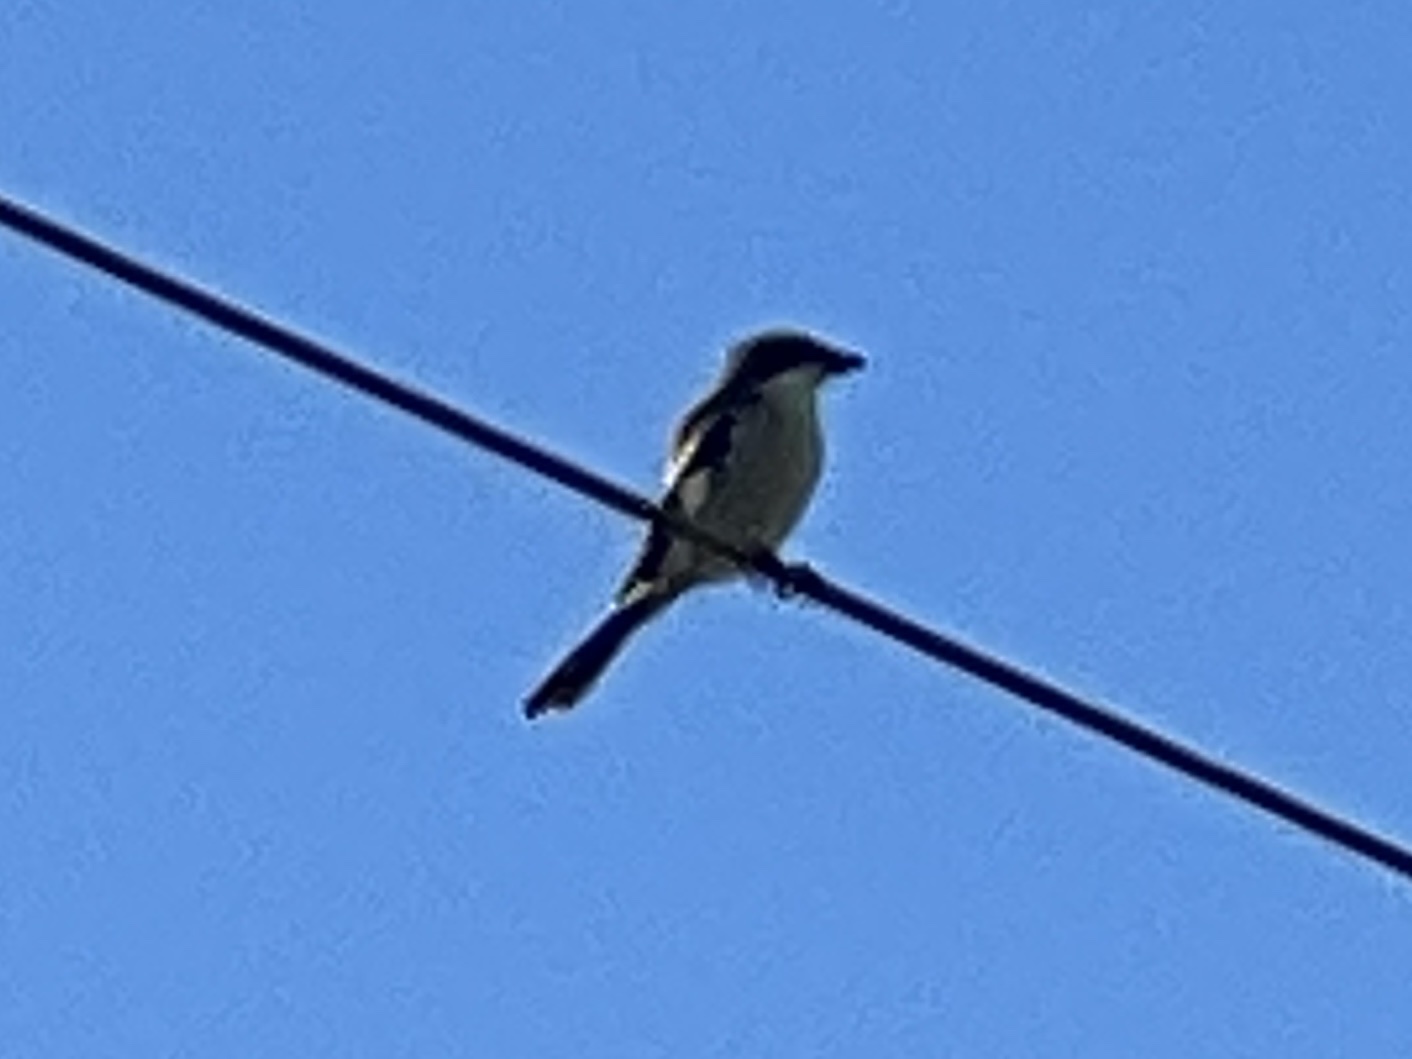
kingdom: Animalia
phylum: Chordata
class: Aves
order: Passeriformes
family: Laniidae
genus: Lanius
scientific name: Lanius ludovicianus
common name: Loggerhead shrike
